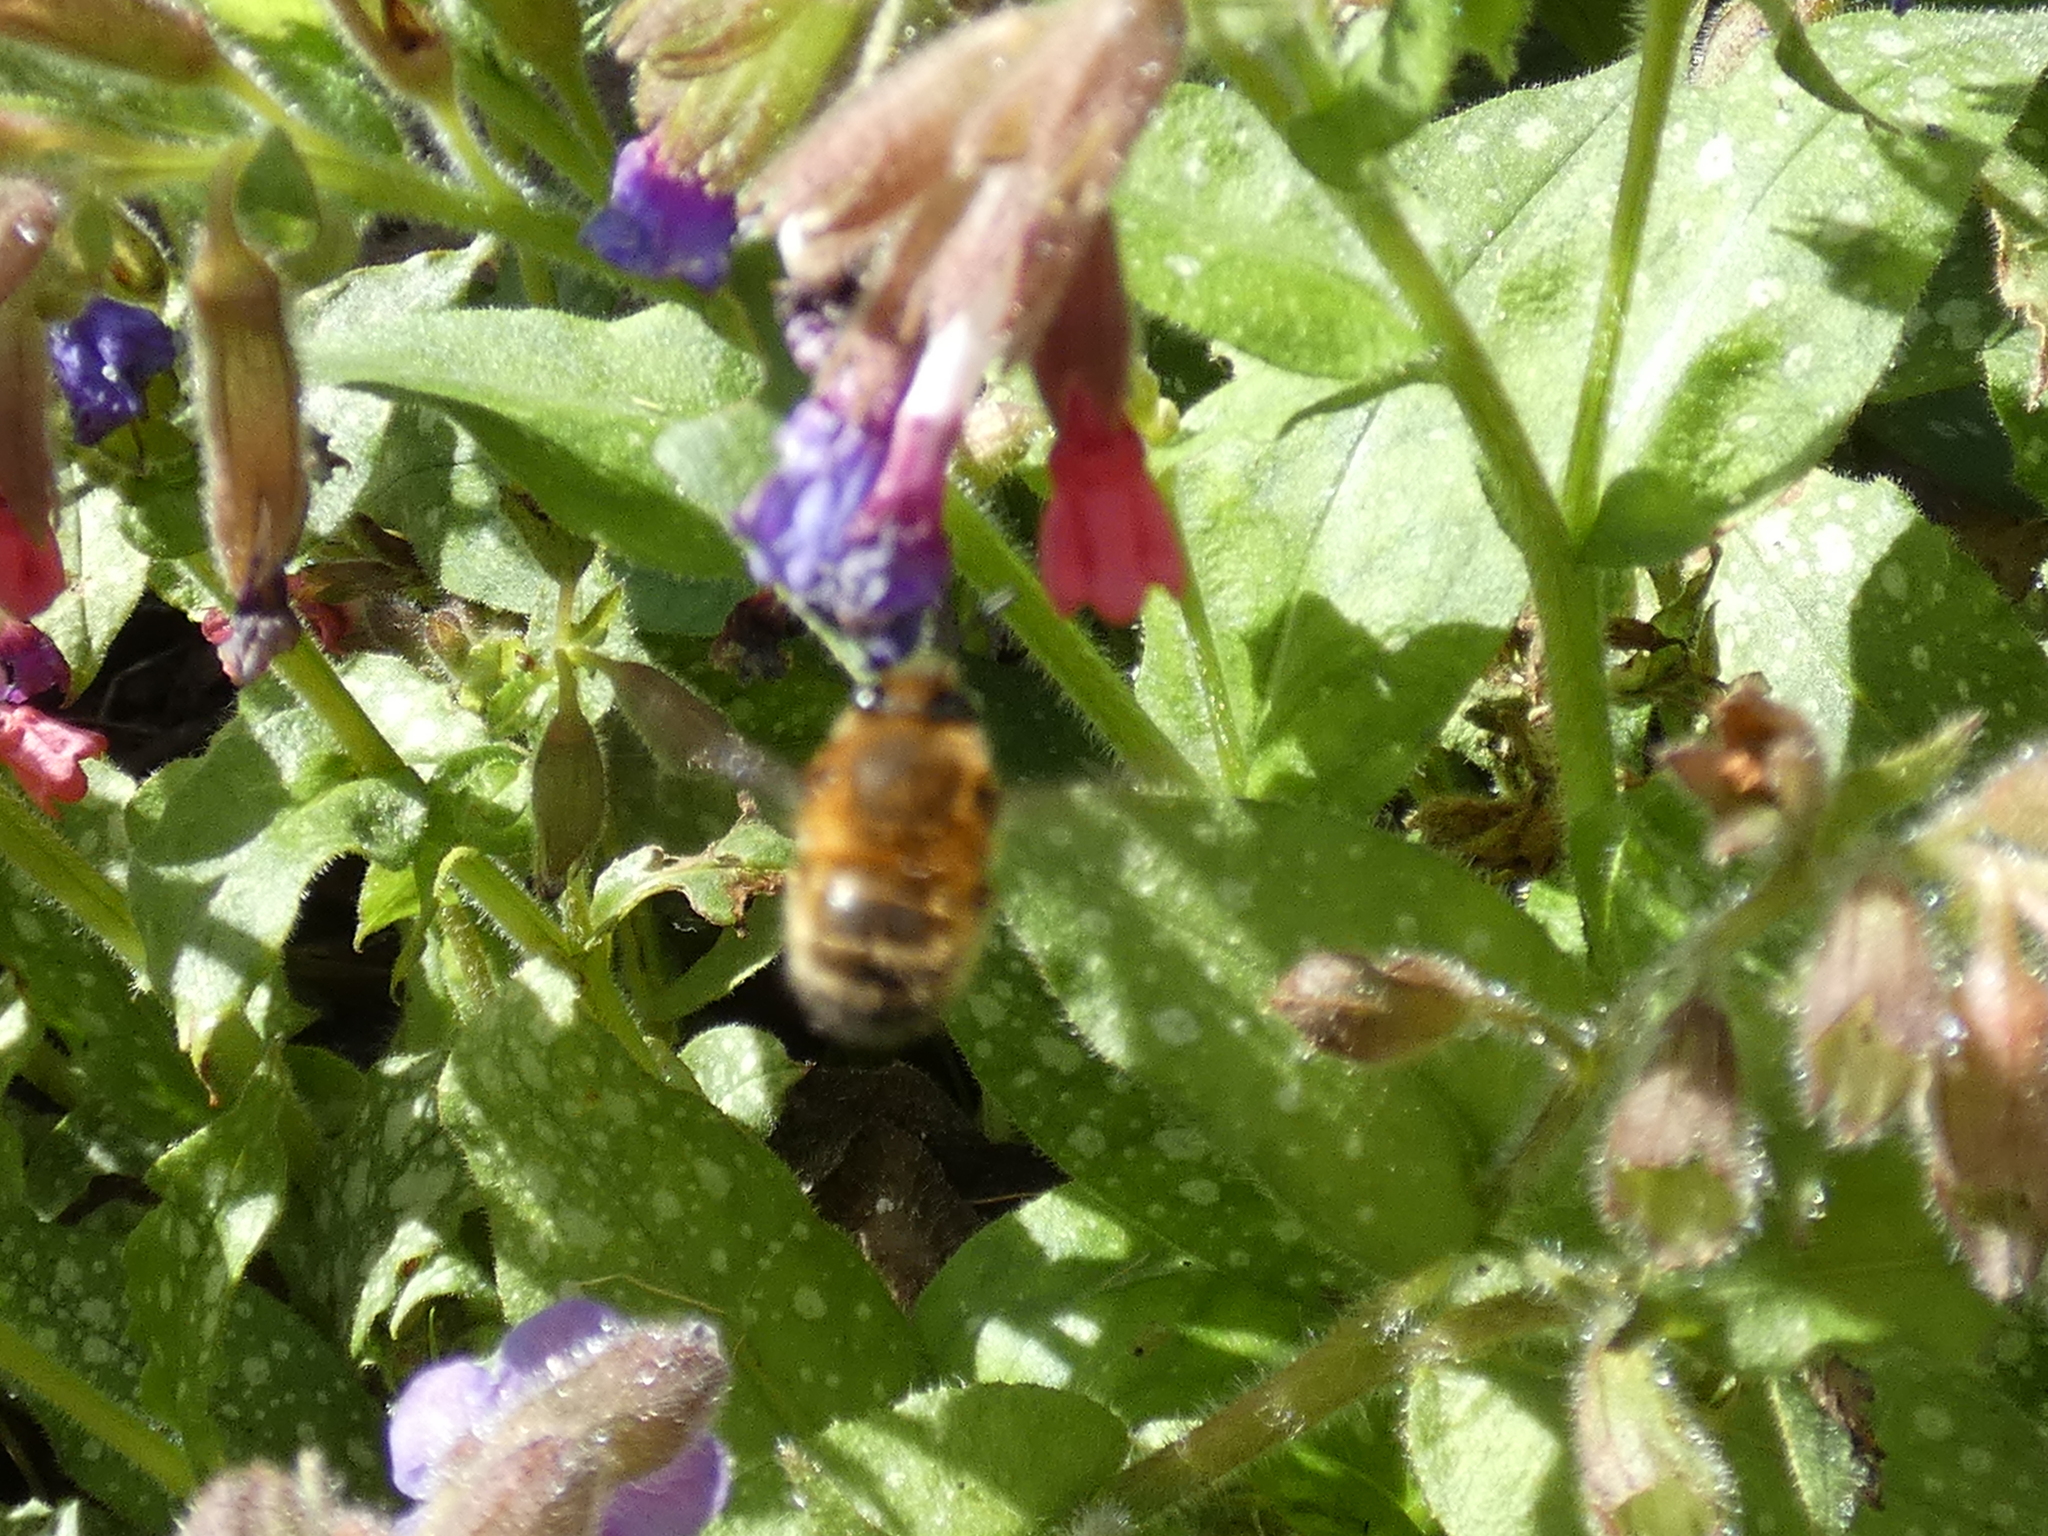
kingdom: Animalia
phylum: Arthropoda
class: Insecta
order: Hymenoptera
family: Apidae
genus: Anthophora
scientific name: Anthophora plumipes
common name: Hairy-footed flower bee
